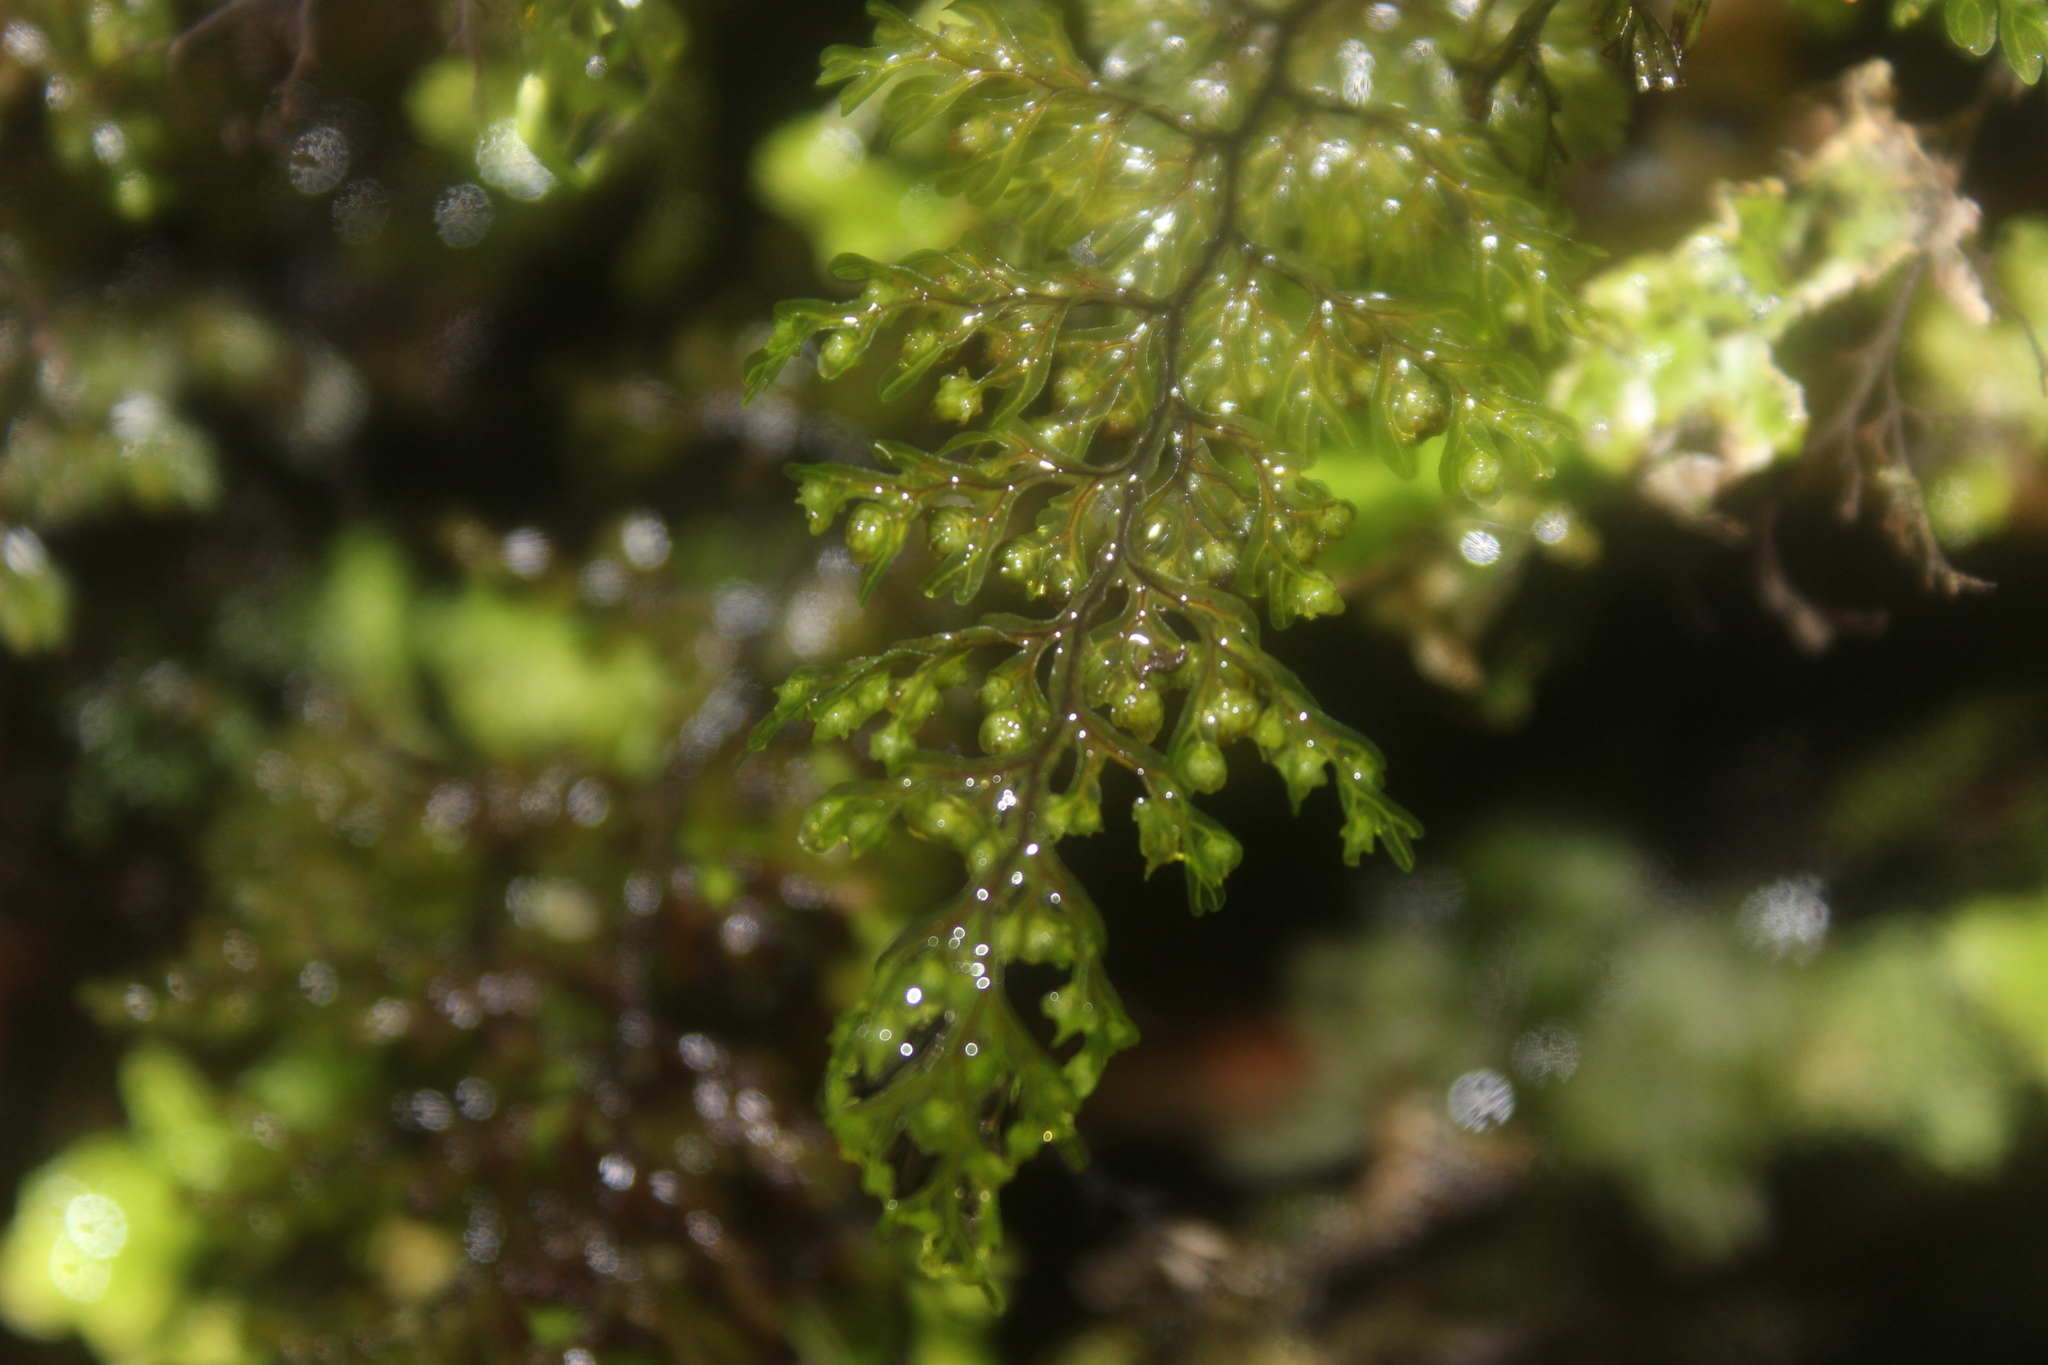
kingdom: Plantae
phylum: Tracheophyta
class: Polypodiopsida
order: Hymenophyllales
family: Hymenophyllaceae
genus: Hymenophyllum
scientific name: Hymenophyllum sanguinolentum
